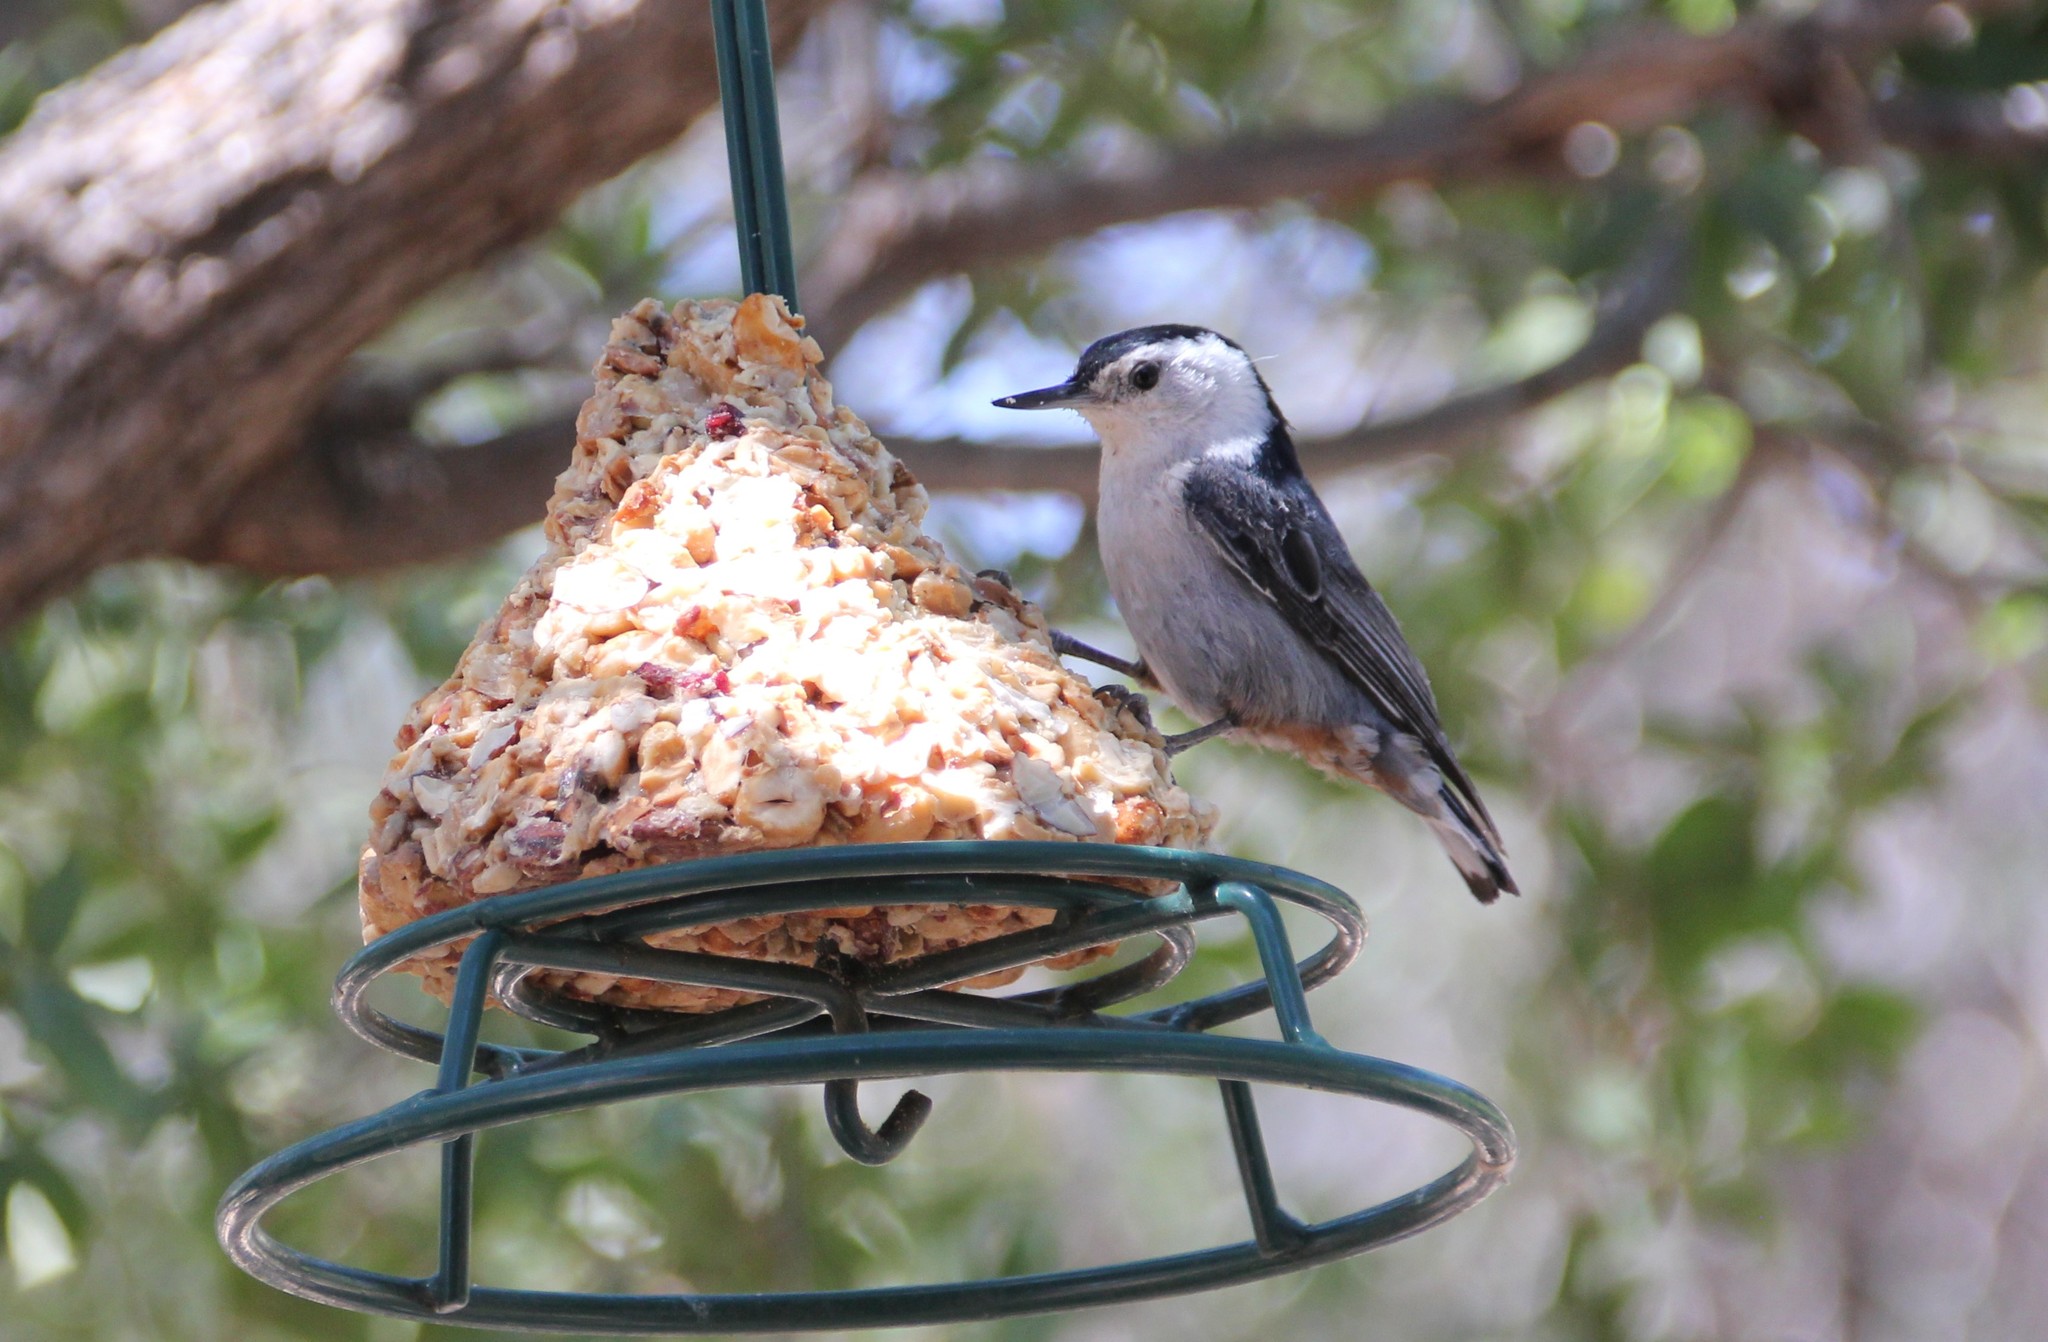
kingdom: Animalia
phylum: Chordata
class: Aves
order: Passeriformes
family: Sittidae
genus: Sitta
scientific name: Sitta carolinensis
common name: White-breasted nuthatch
